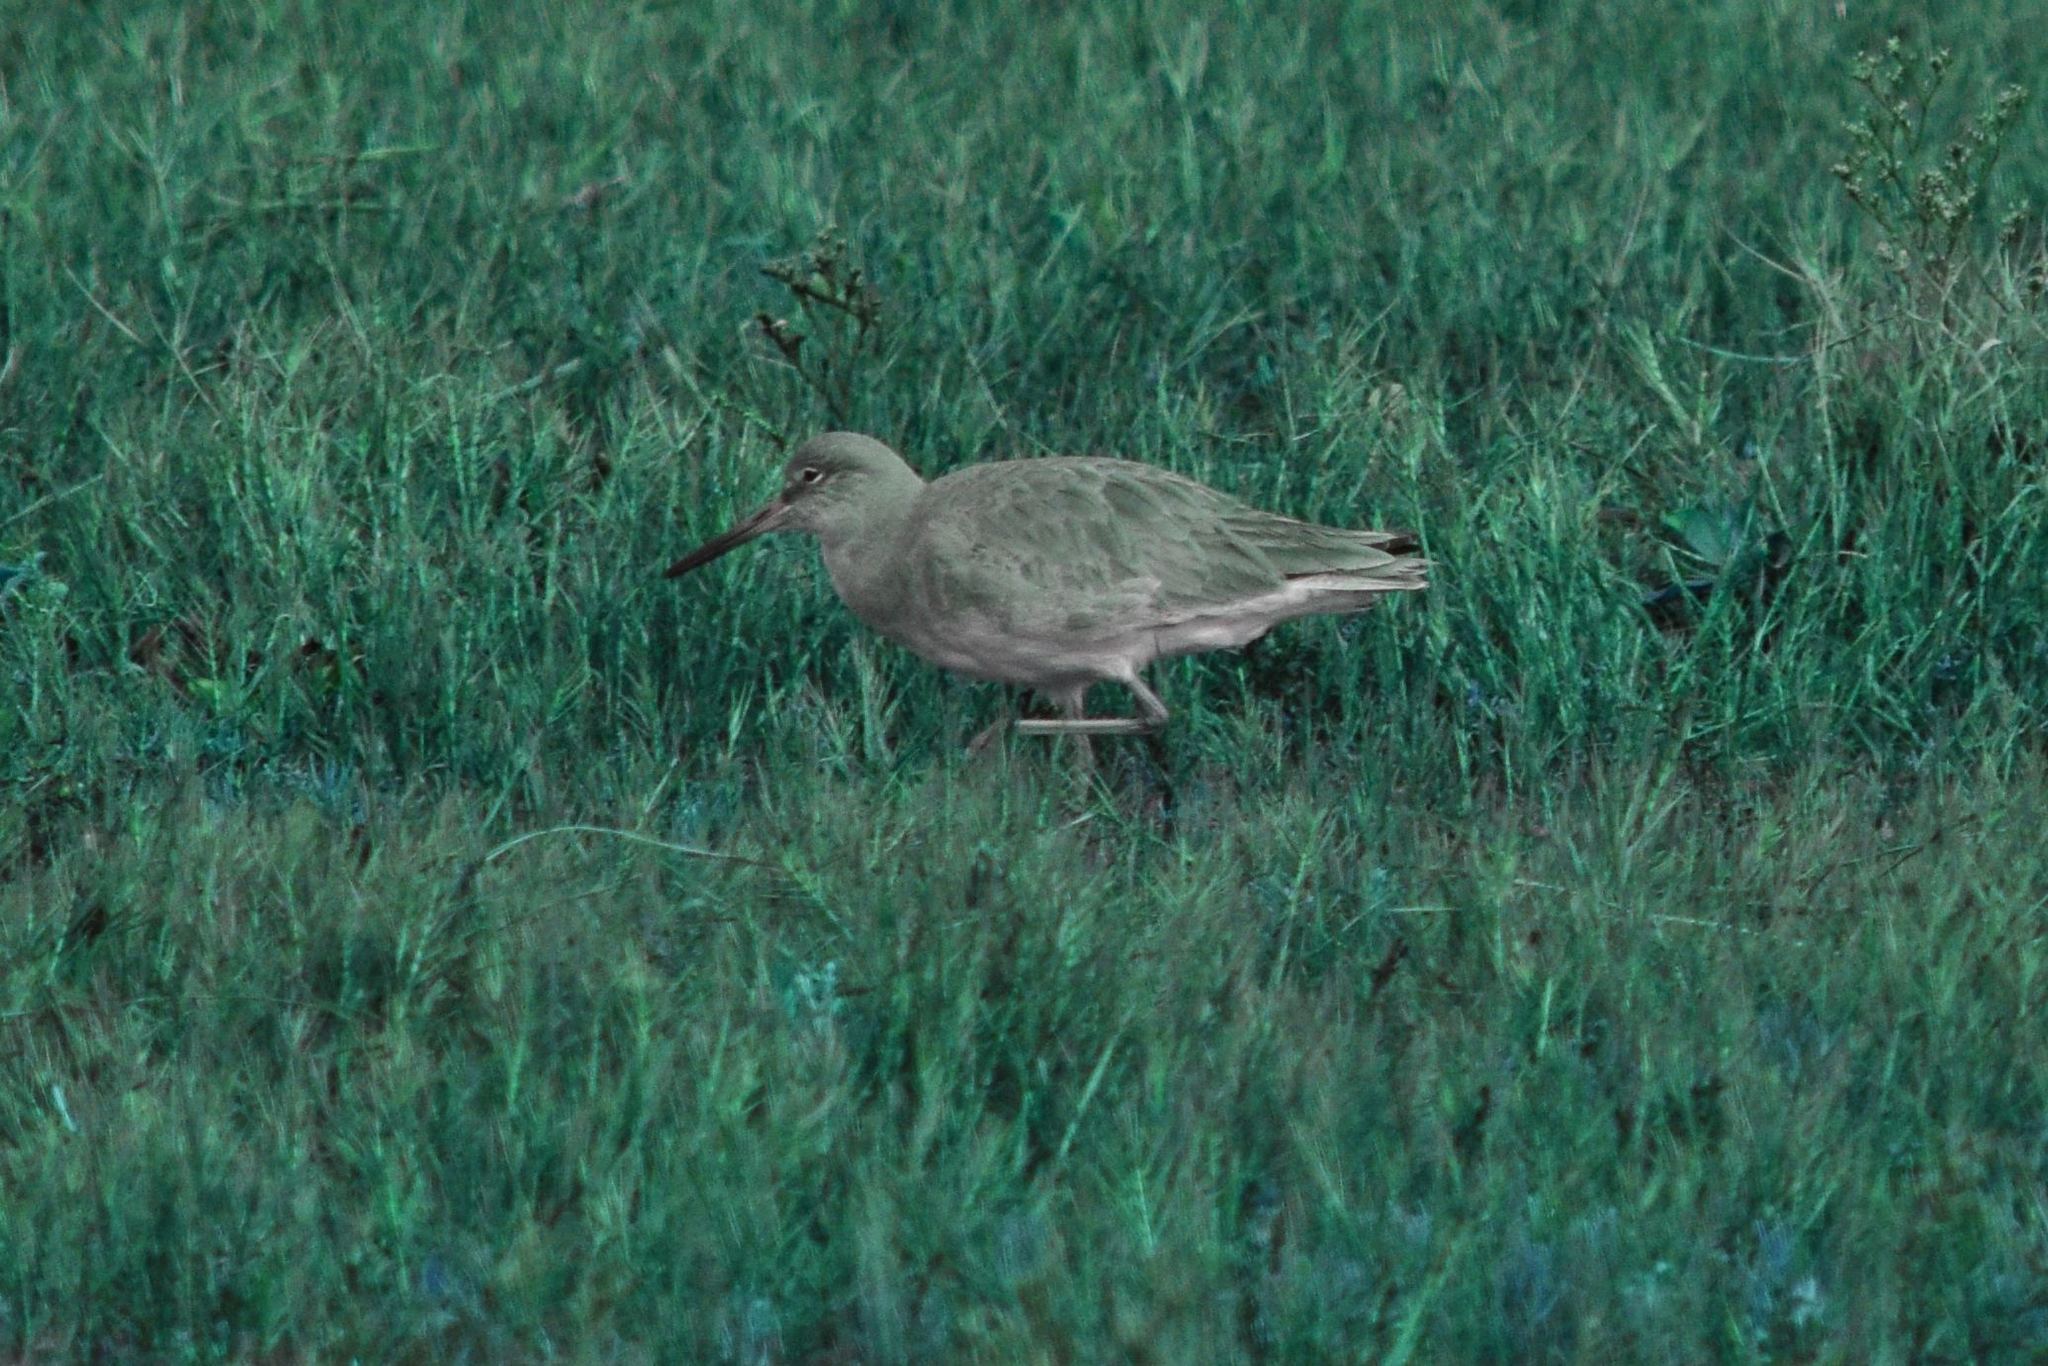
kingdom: Animalia
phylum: Chordata
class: Aves
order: Charadriiformes
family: Scolopacidae
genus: Tringa
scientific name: Tringa semipalmata
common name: Willet
